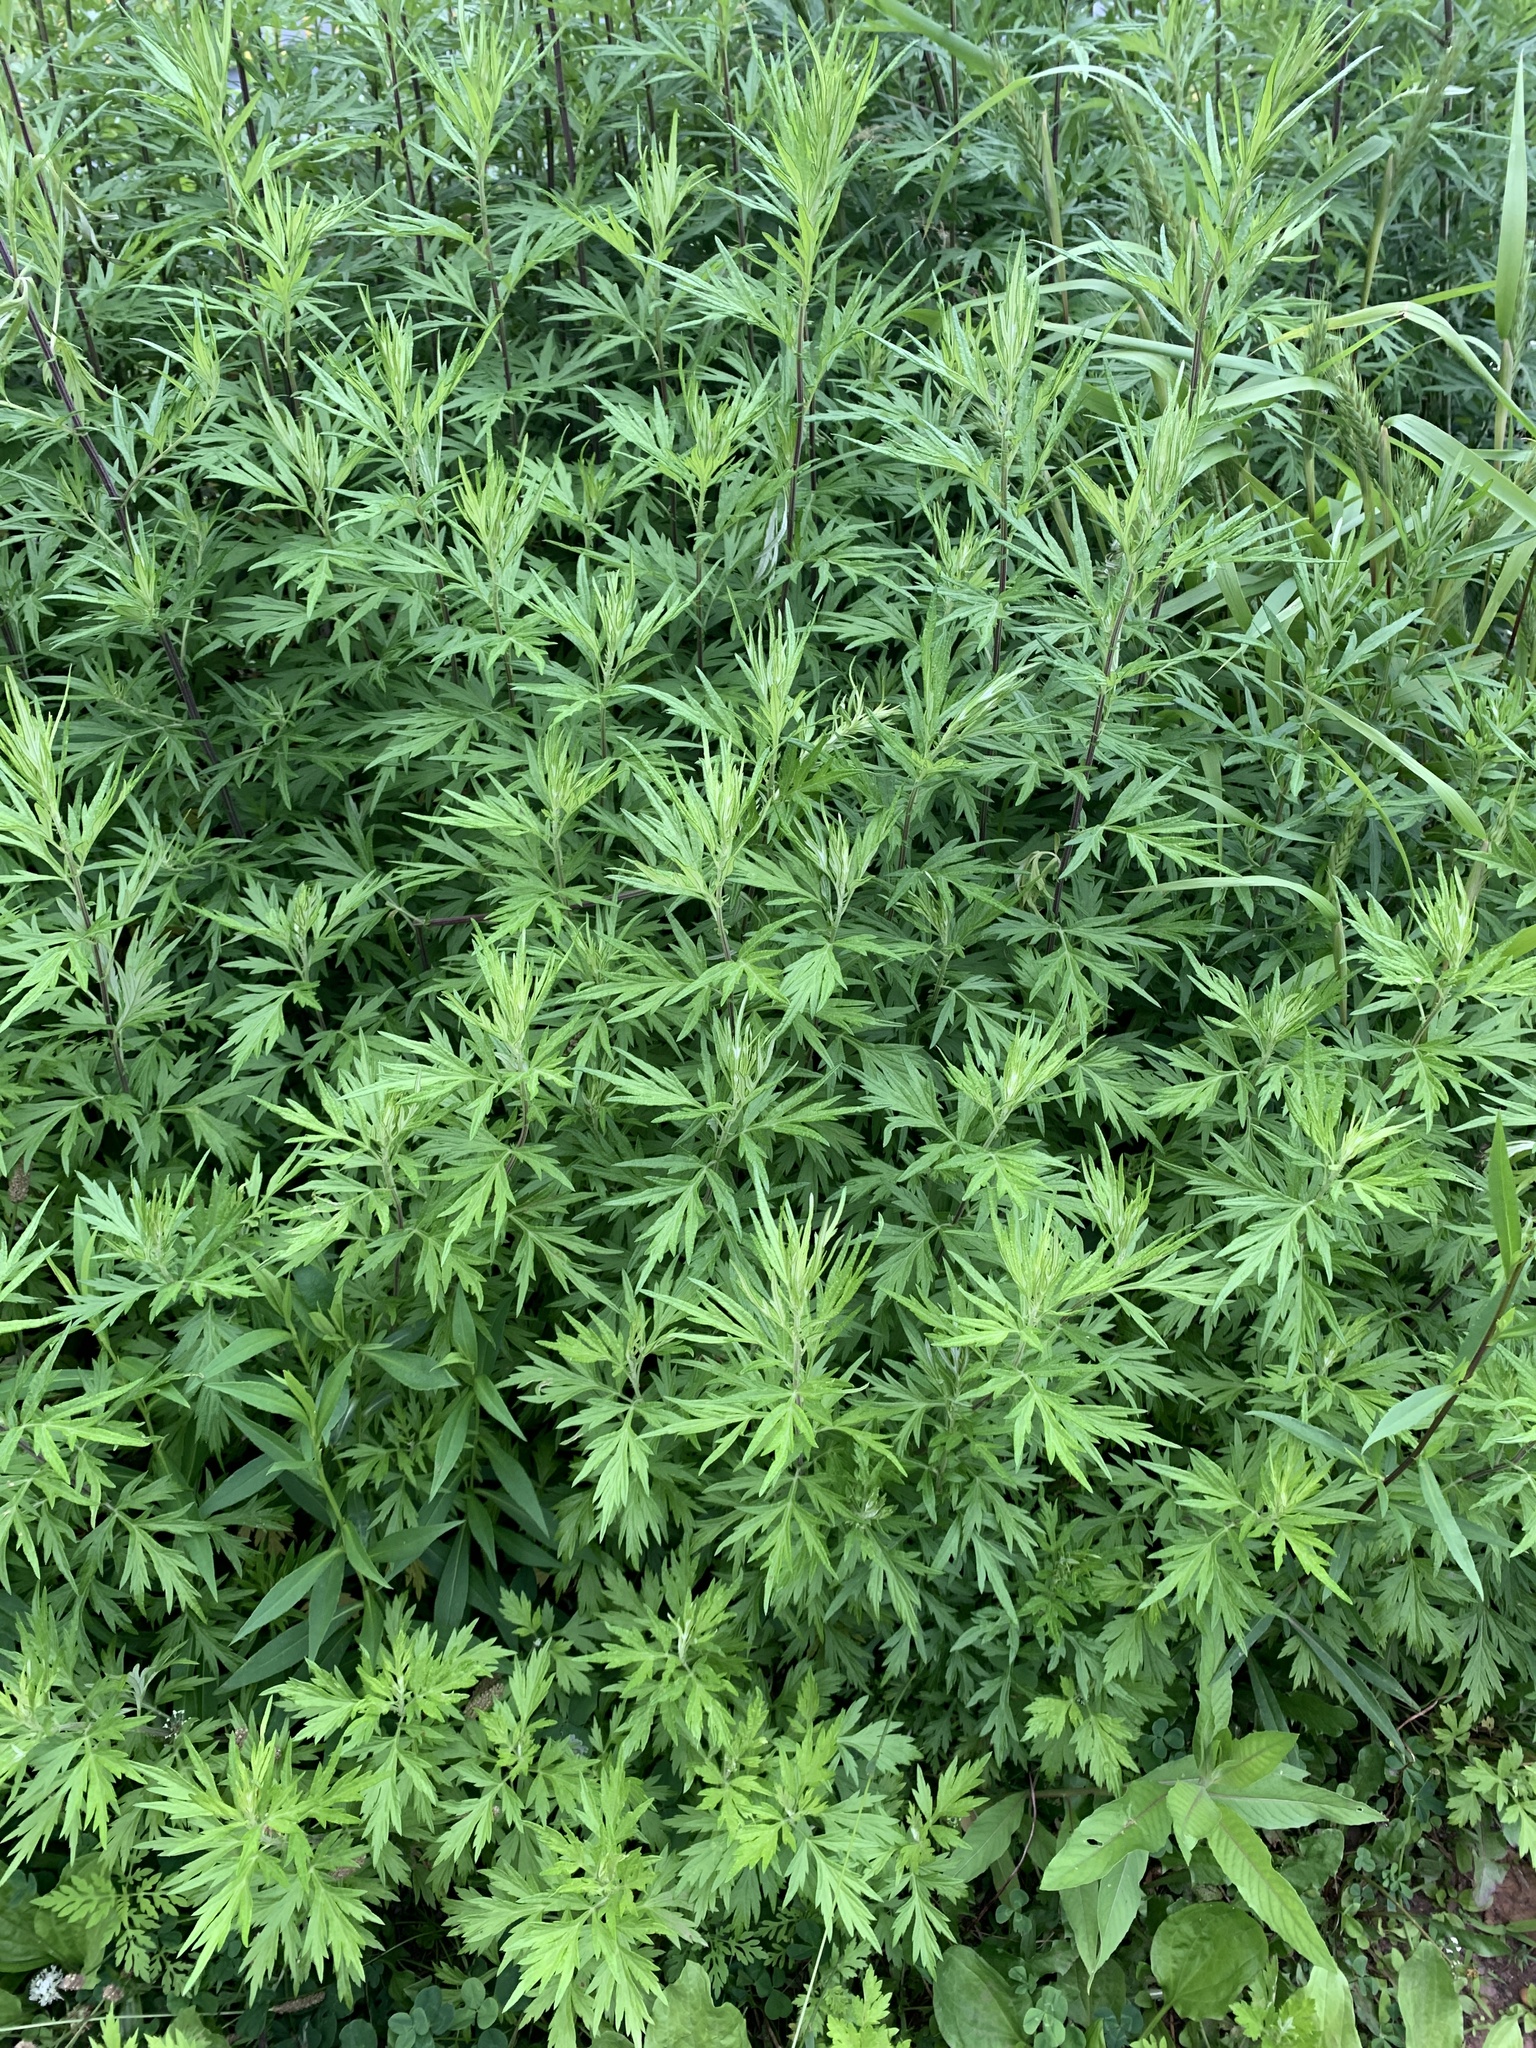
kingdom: Plantae
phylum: Tracheophyta
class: Magnoliopsida
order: Asterales
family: Asteraceae
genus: Artemisia
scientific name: Artemisia vulgaris
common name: Mugwort
